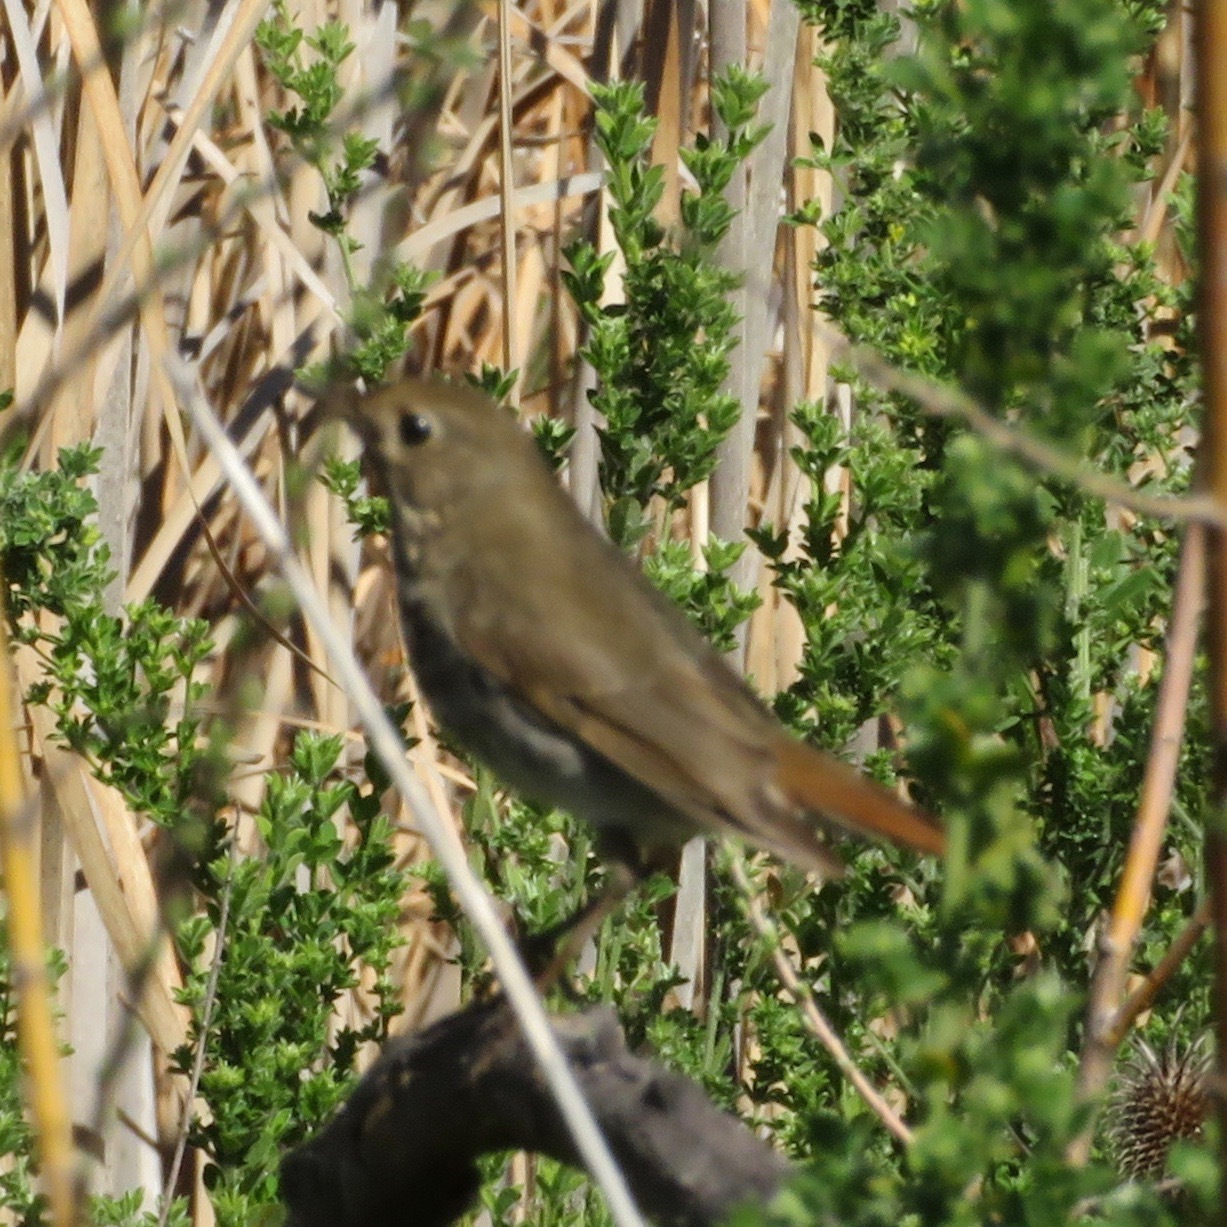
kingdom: Animalia
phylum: Chordata
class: Aves
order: Passeriformes
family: Turdidae
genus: Catharus
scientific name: Catharus guttatus
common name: Hermit thrush
